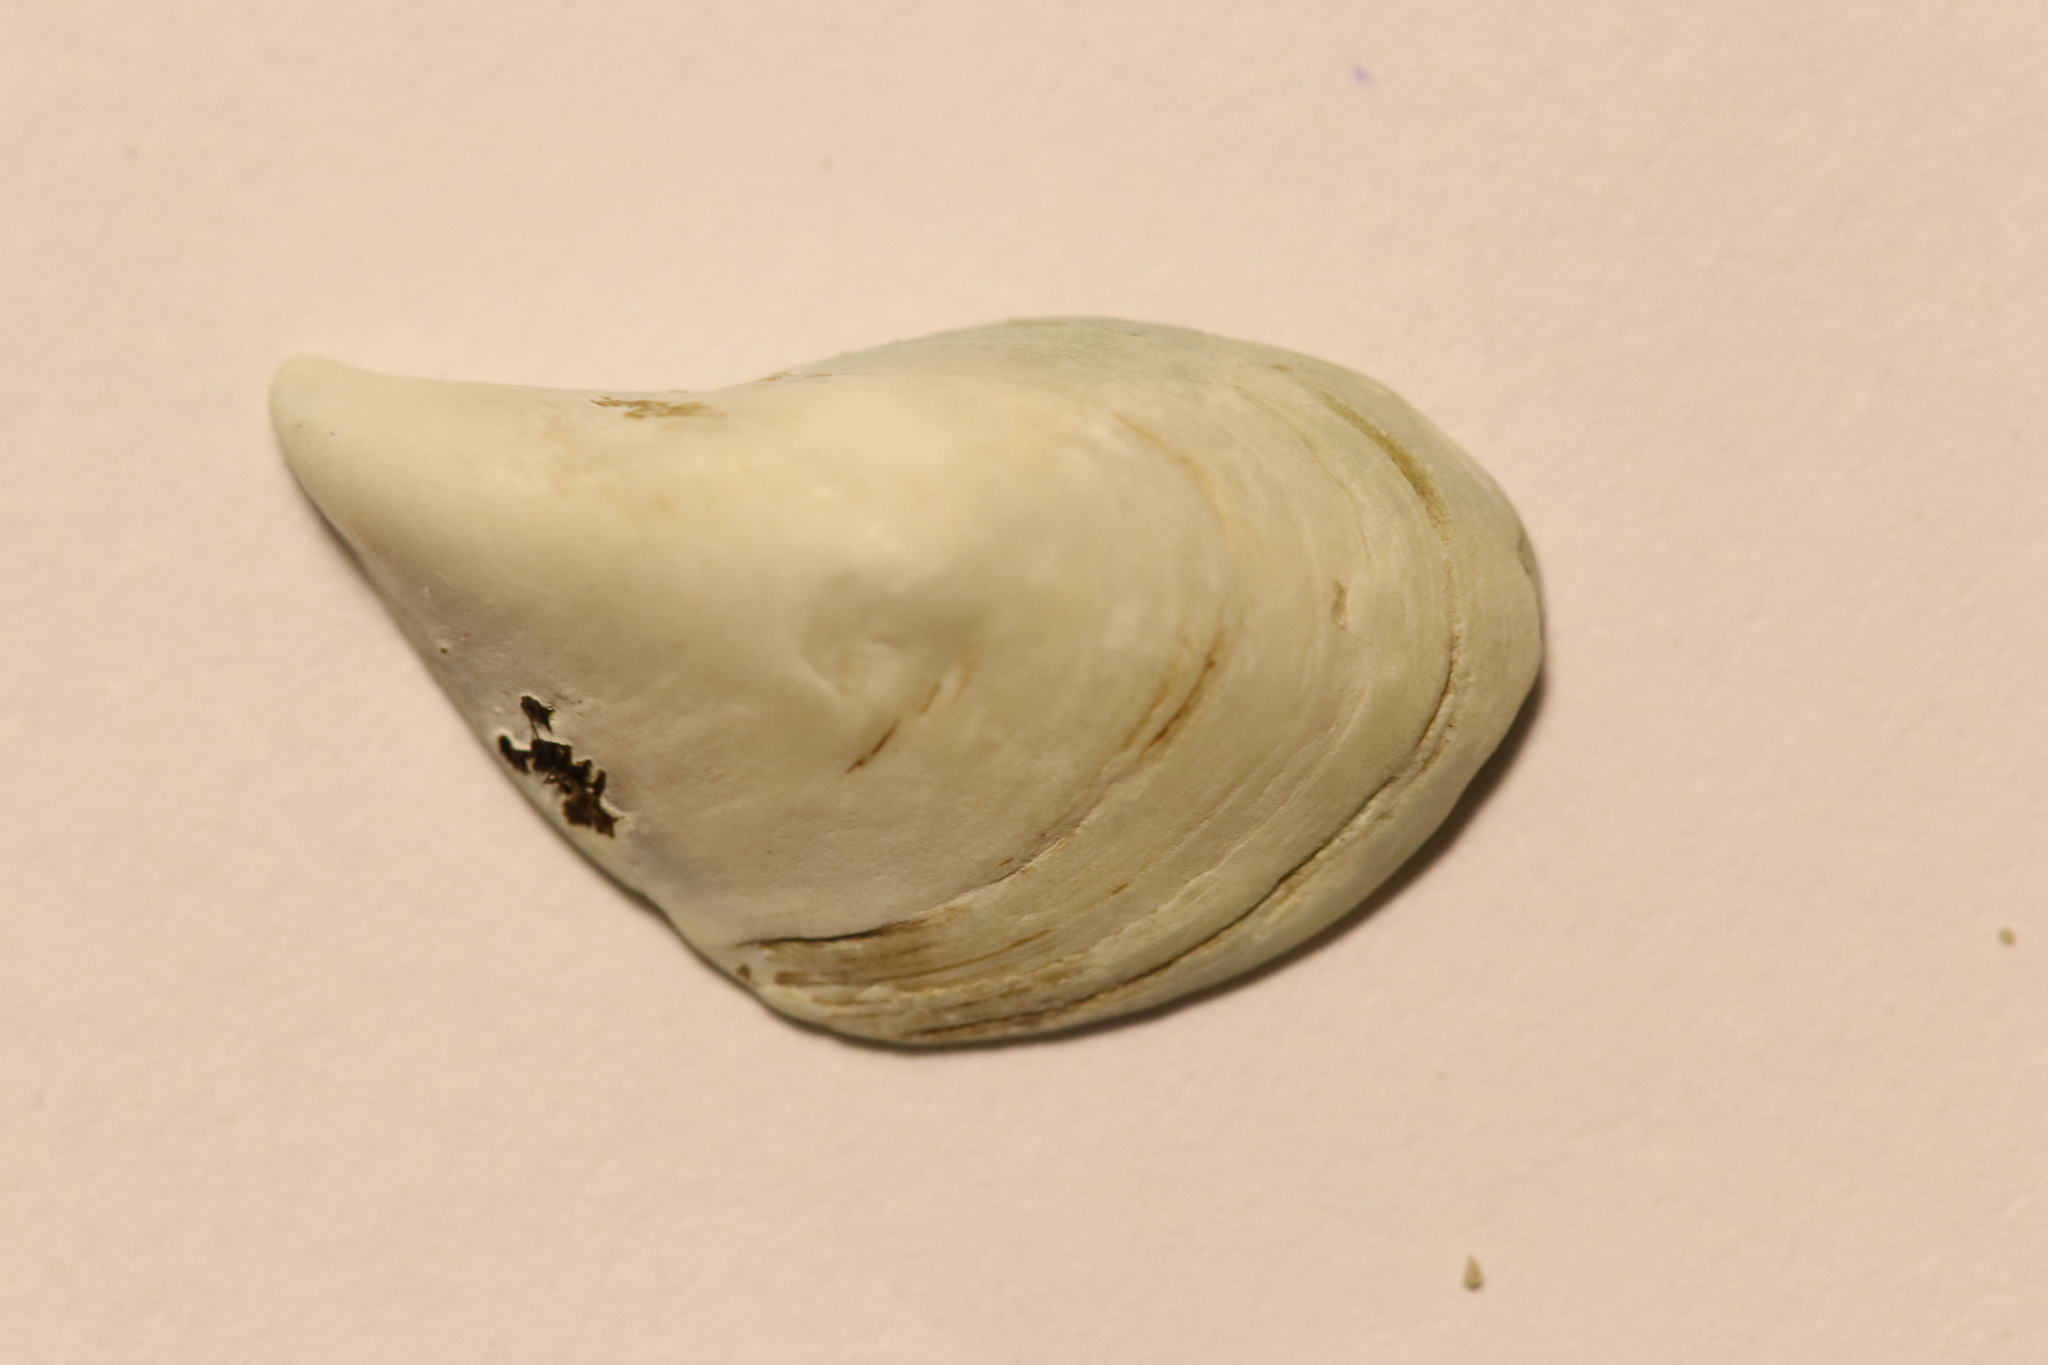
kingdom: Animalia
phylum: Mollusca
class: Bivalvia
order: Myida
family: Dreissenidae
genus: Dreissena
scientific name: Dreissena bugensis
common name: Quagga mussel
